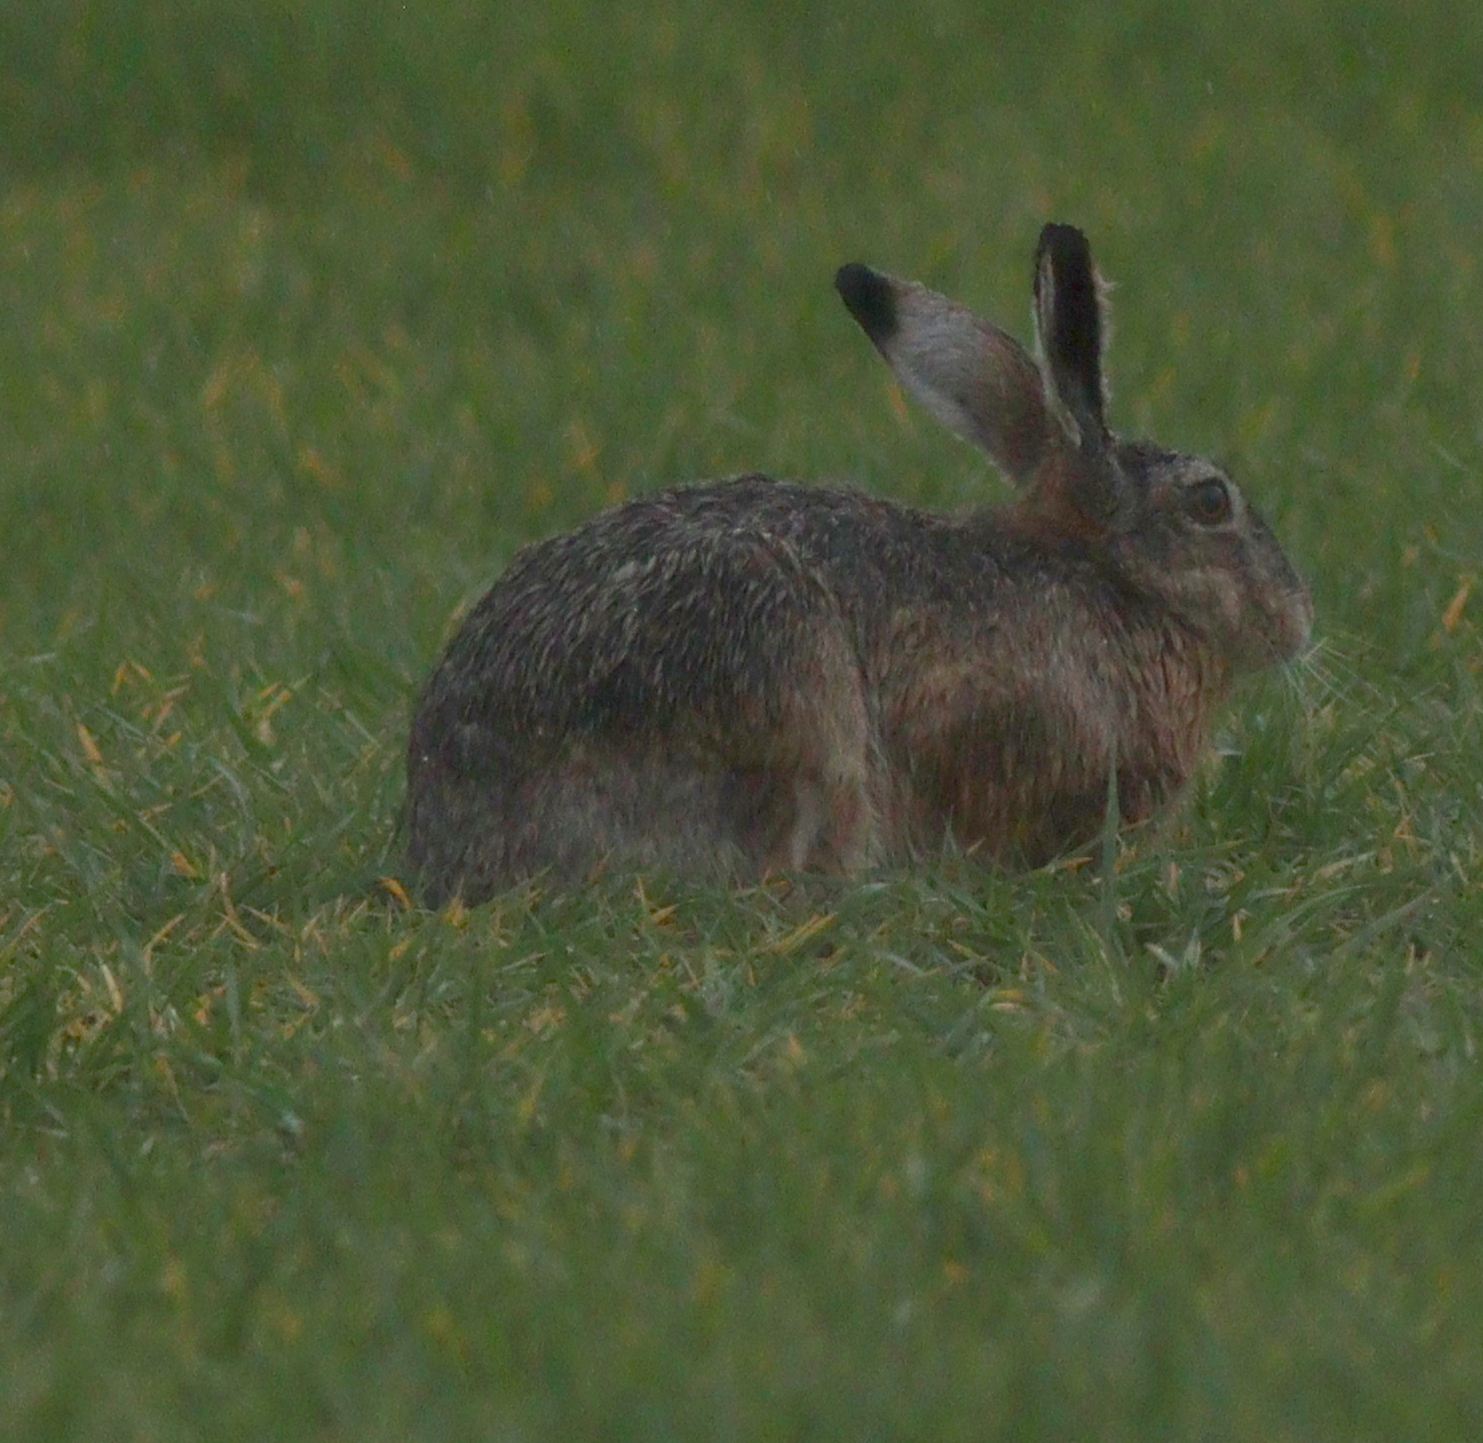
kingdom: Animalia
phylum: Chordata
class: Mammalia
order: Lagomorpha
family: Leporidae
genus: Lepus
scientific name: Lepus europaeus
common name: European hare
